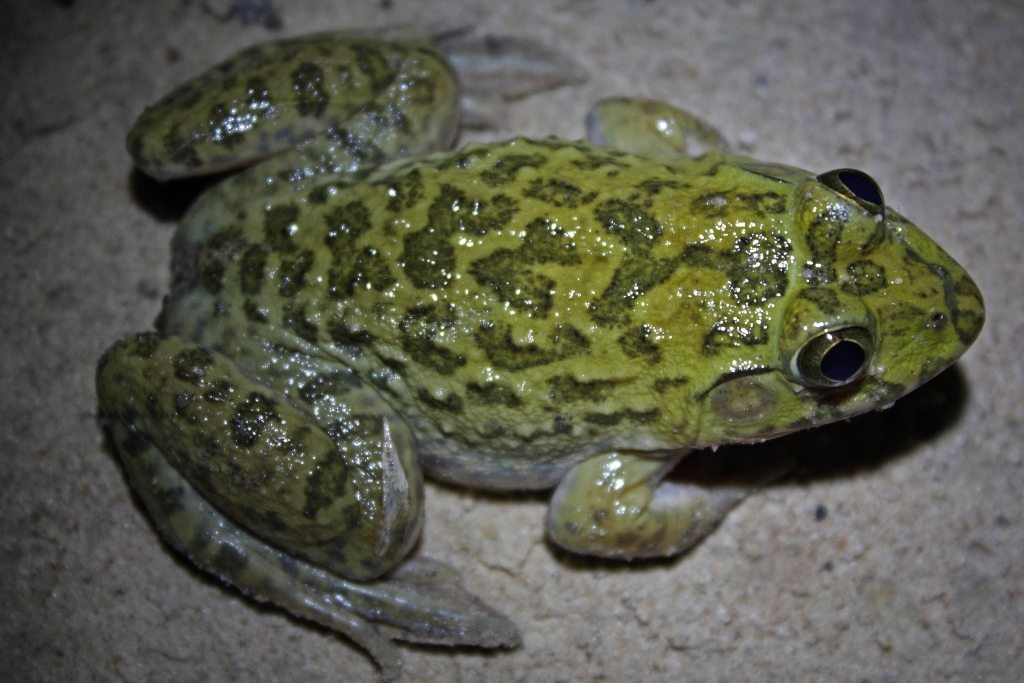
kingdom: Animalia
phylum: Chordata
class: Amphibia
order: Anura
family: Dicroglossidae
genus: Hoplobatrachus
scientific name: Hoplobatrachus occipitalis
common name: Eastern groove-crowned bullfrog
